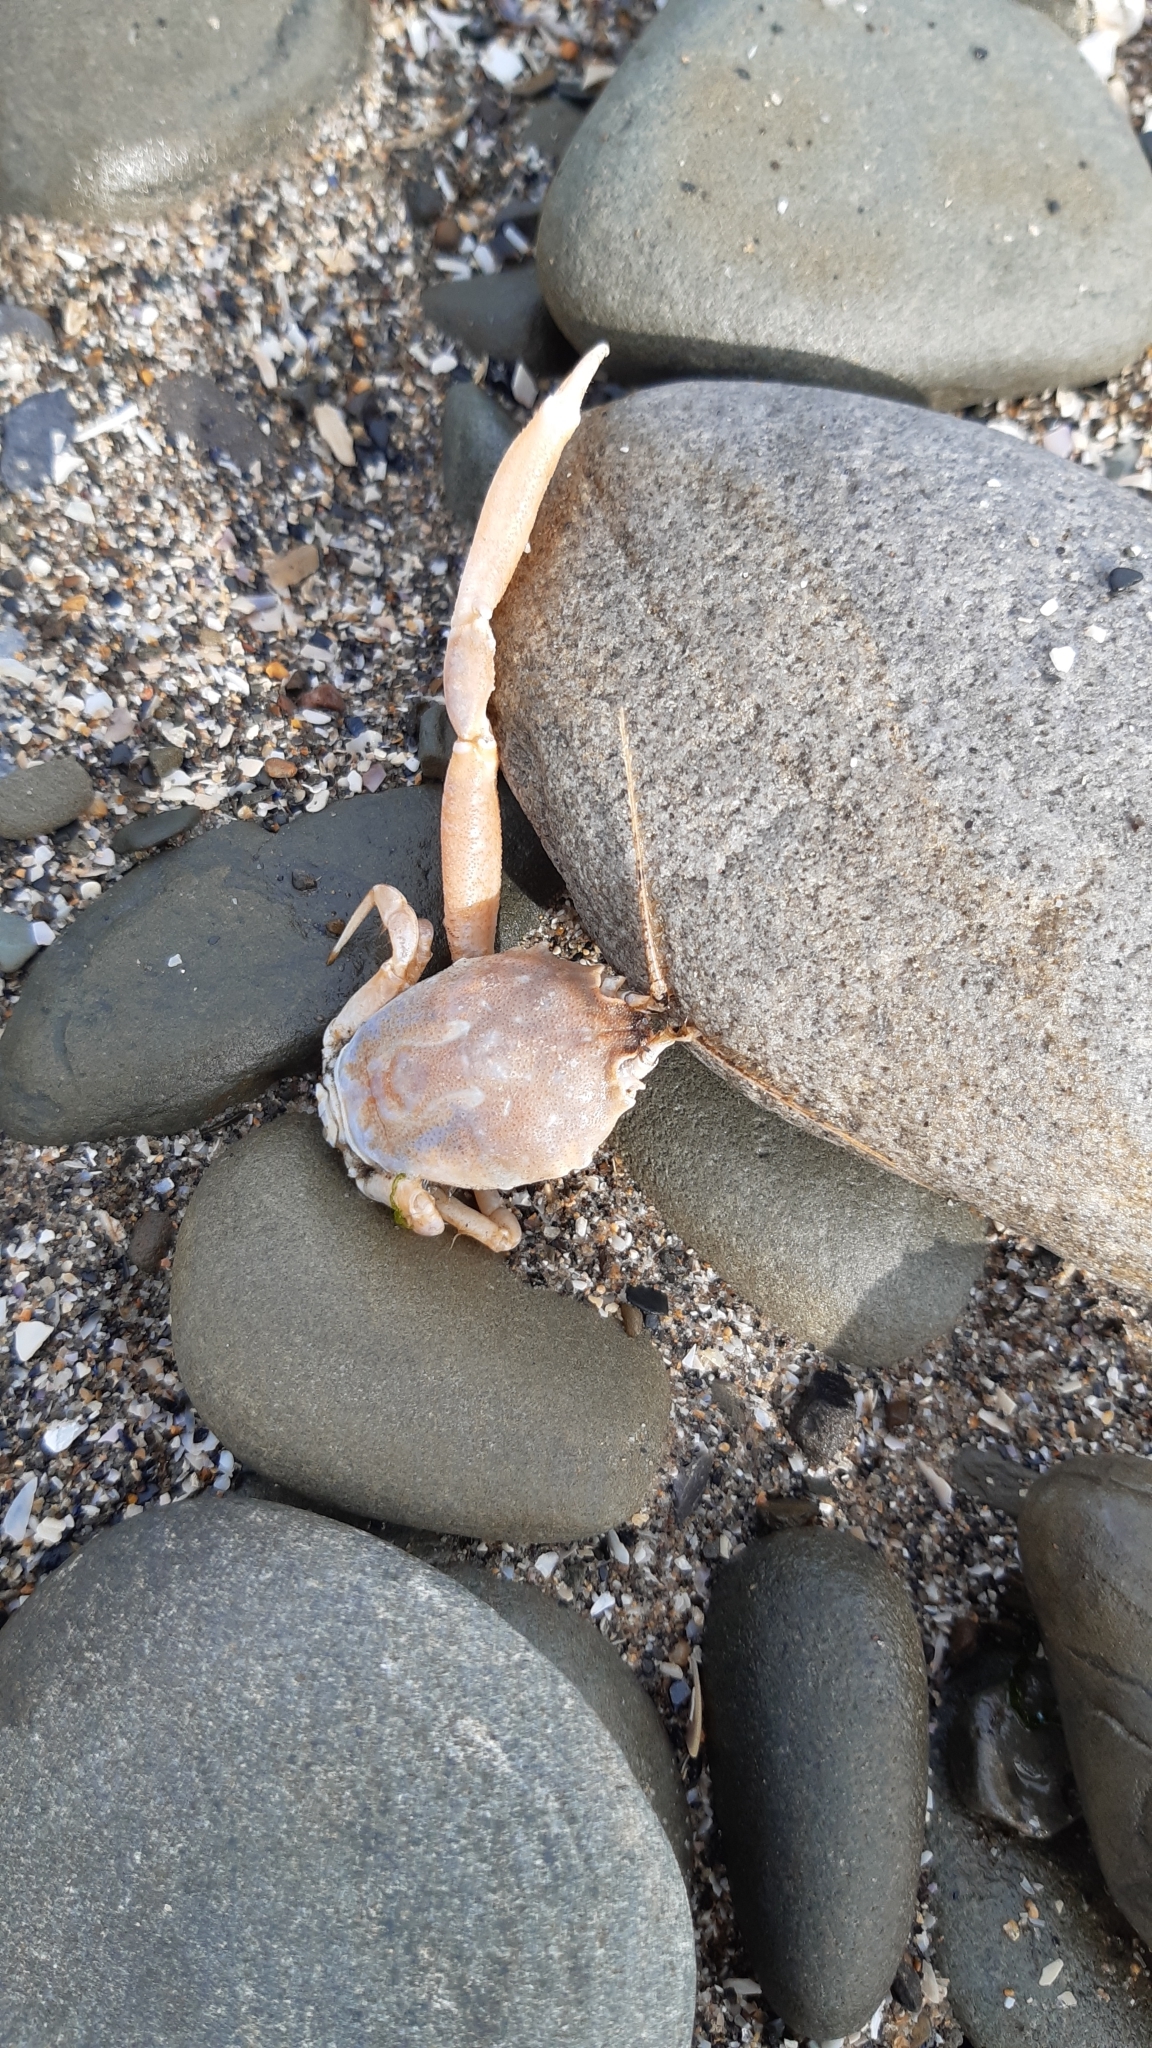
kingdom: Animalia
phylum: Arthropoda
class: Malacostraca
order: Decapoda
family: Corystidae
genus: Corystes
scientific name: Corystes cassivelaunus
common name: Masked crab
